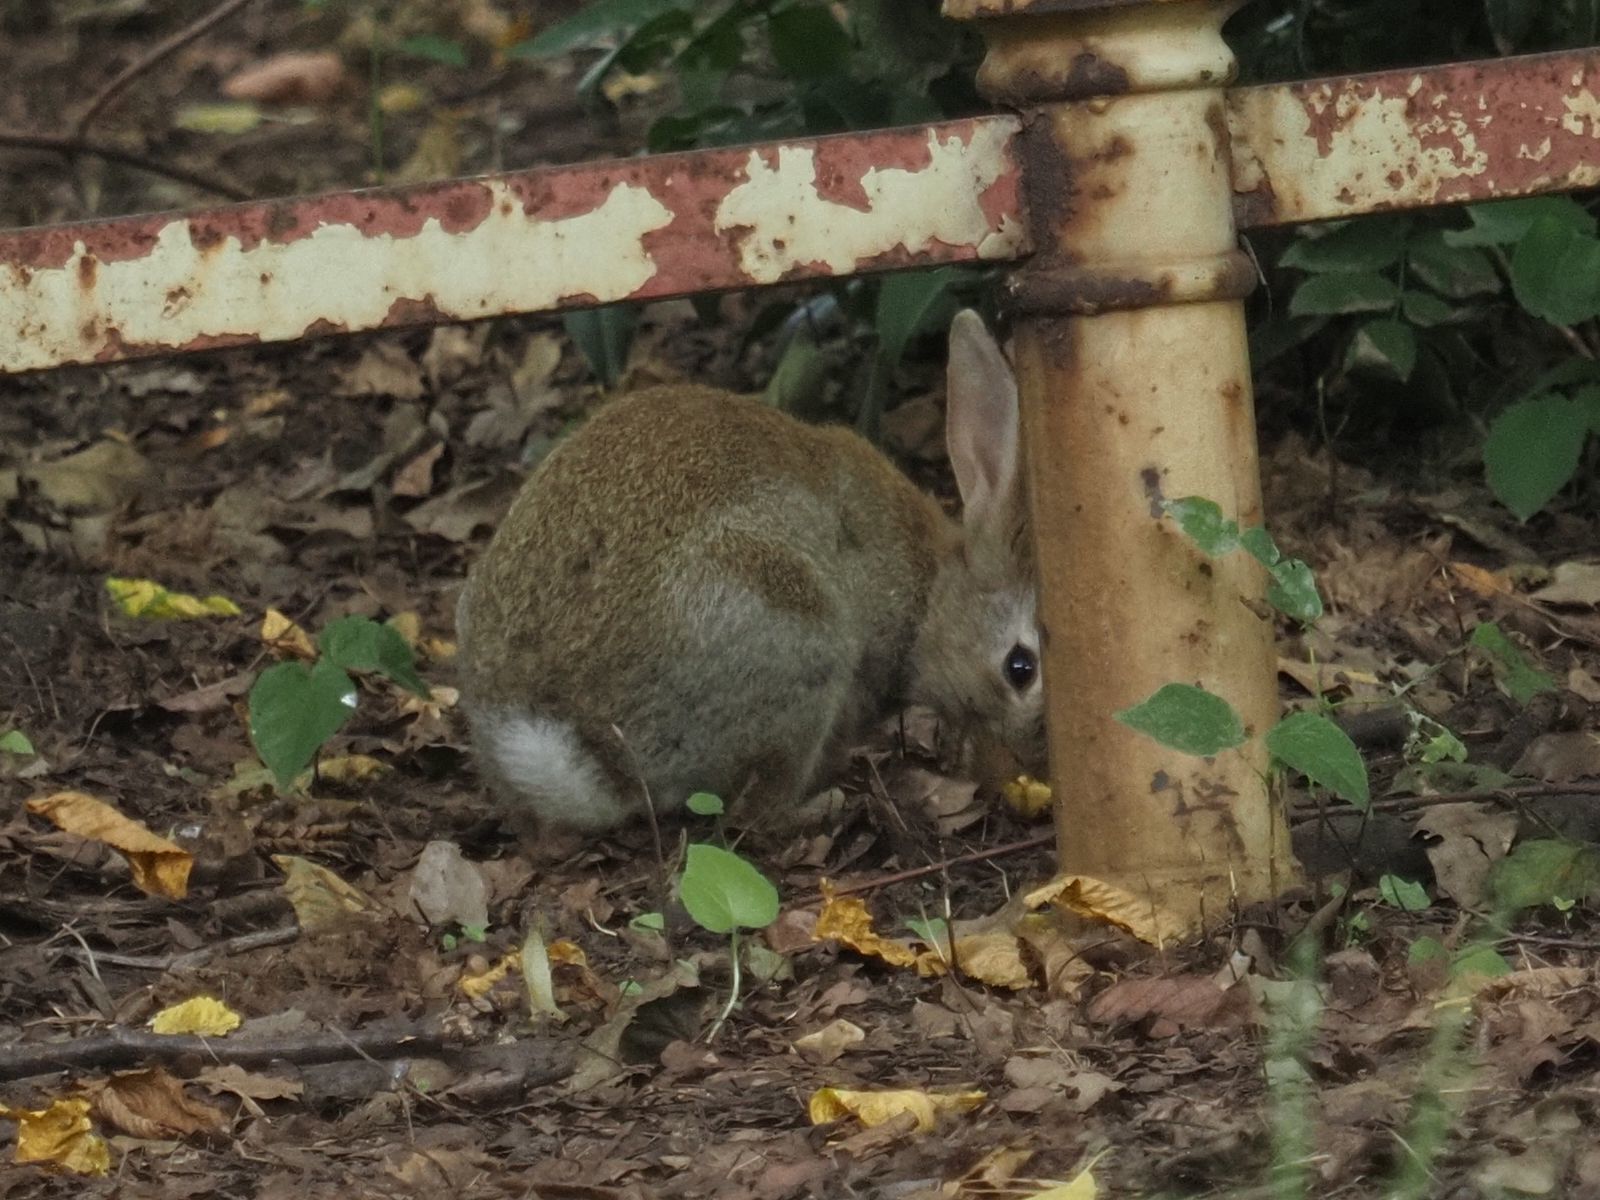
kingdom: Animalia
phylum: Chordata
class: Mammalia
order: Lagomorpha
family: Leporidae
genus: Oryctolagus
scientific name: Oryctolagus cuniculus
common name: European rabbit
